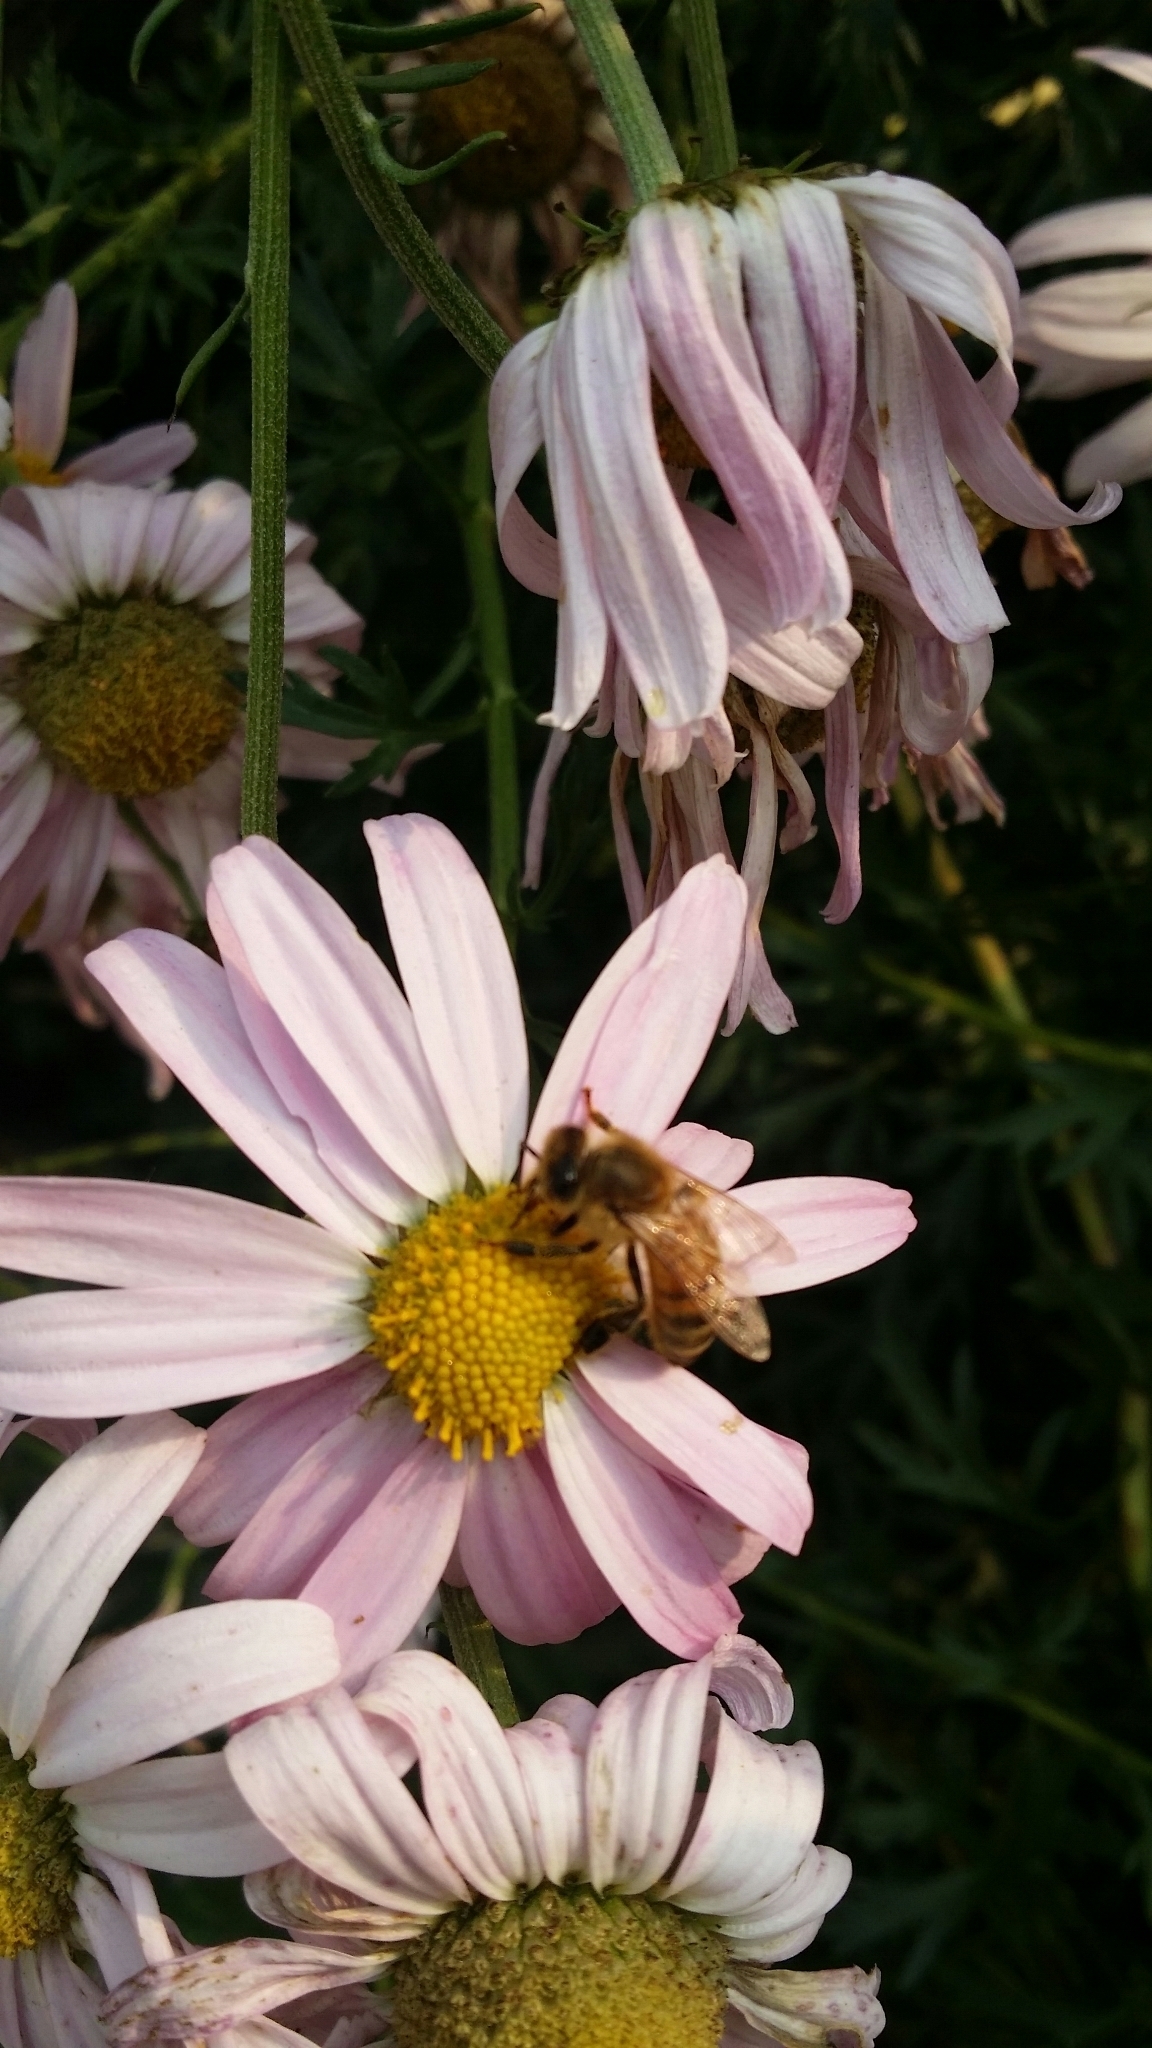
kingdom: Animalia
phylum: Arthropoda
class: Insecta
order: Hymenoptera
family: Apidae
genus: Apis
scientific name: Apis mellifera
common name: Honey bee
